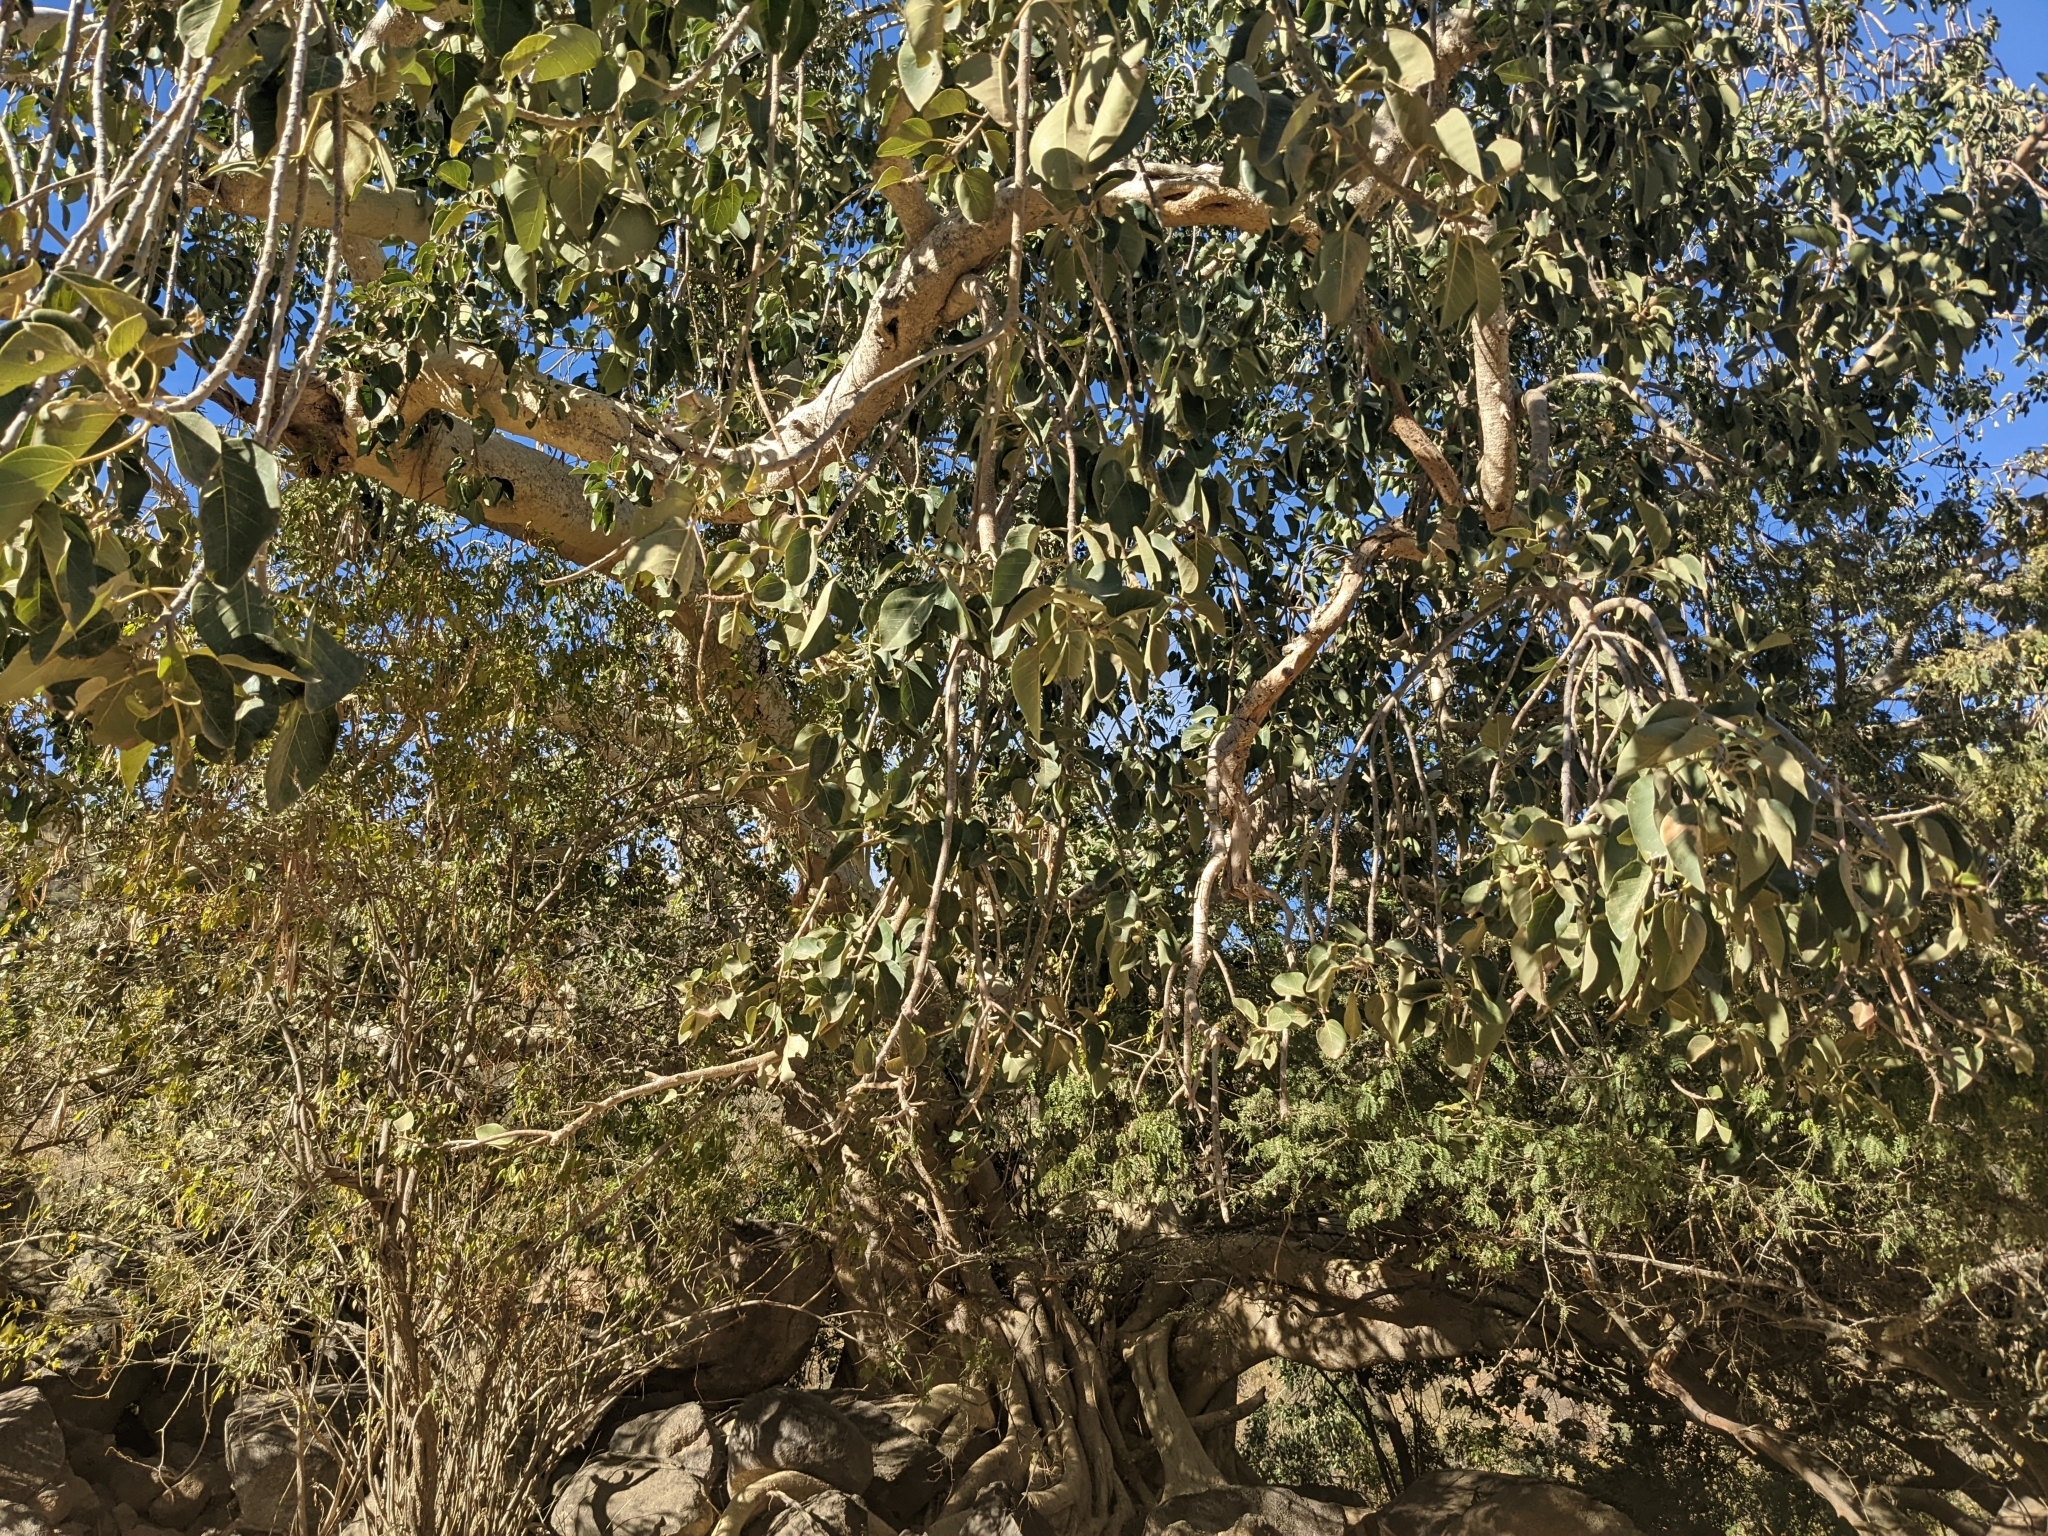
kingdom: Plantae
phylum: Tracheophyta
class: Magnoliopsida
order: Rosales
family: Moraceae
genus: Ficus
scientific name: Ficus petiolaris
